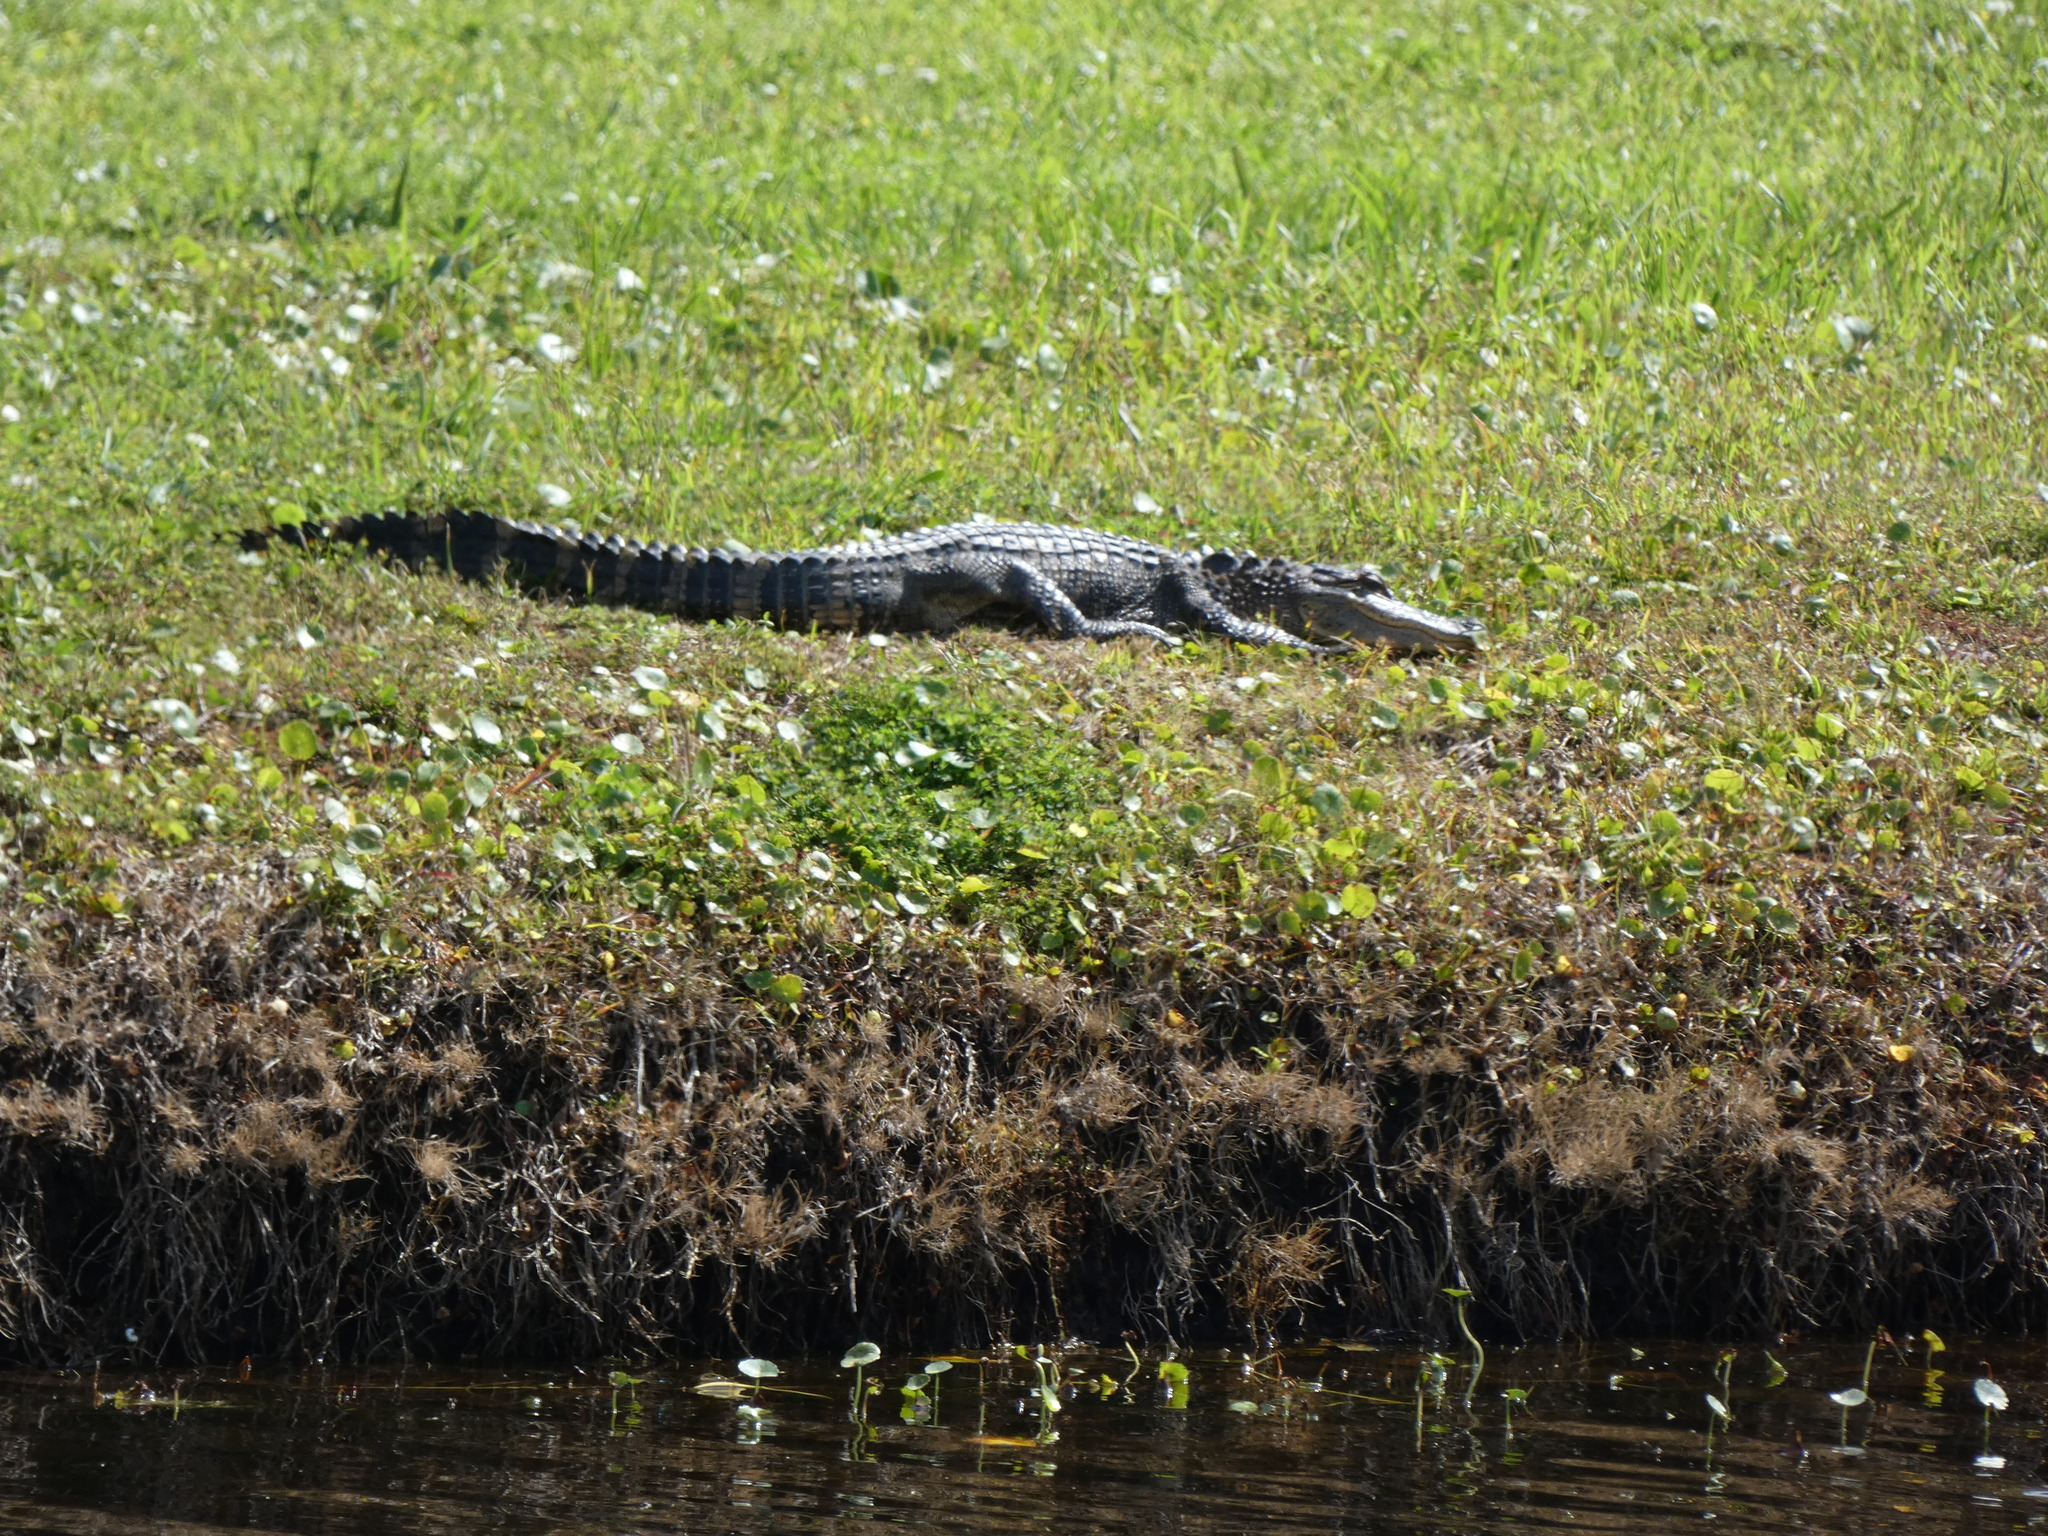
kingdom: Animalia
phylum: Chordata
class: Crocodylia
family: Alligatoridae
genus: Alligator
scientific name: Alligator mississippiensis
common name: American alligator
